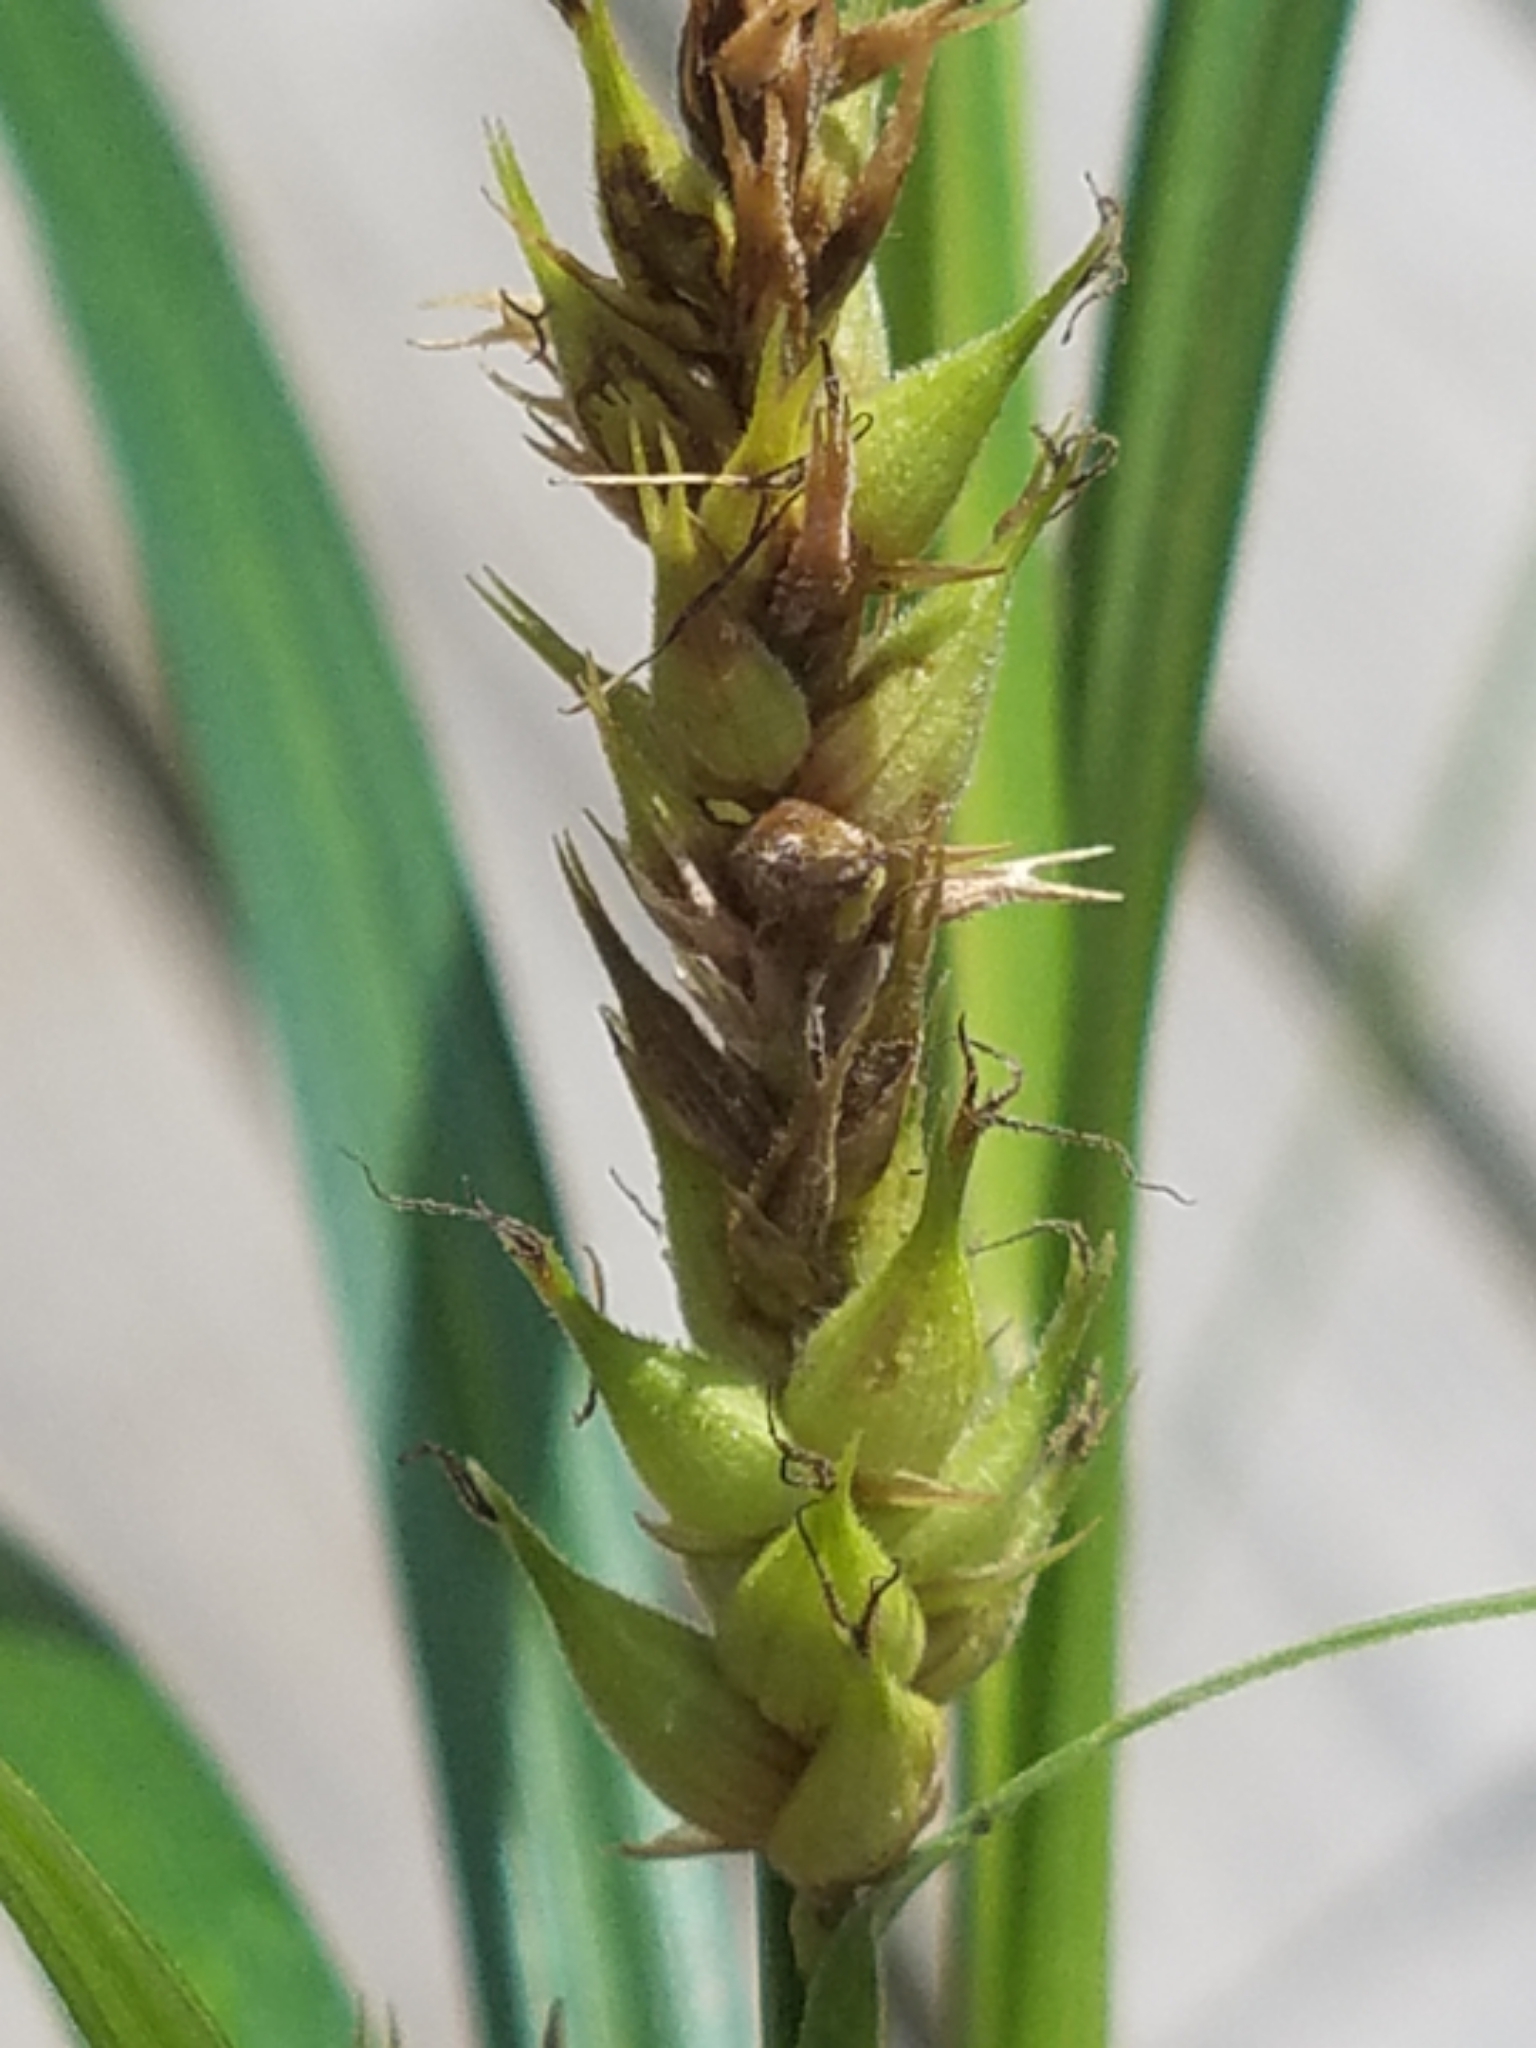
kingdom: Plantae
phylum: Tracheophyta
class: Liliopsida
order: Poales
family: Cyperaceae
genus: Carex
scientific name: Carex trichocarpa
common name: Hairy-fruited lake sedge
